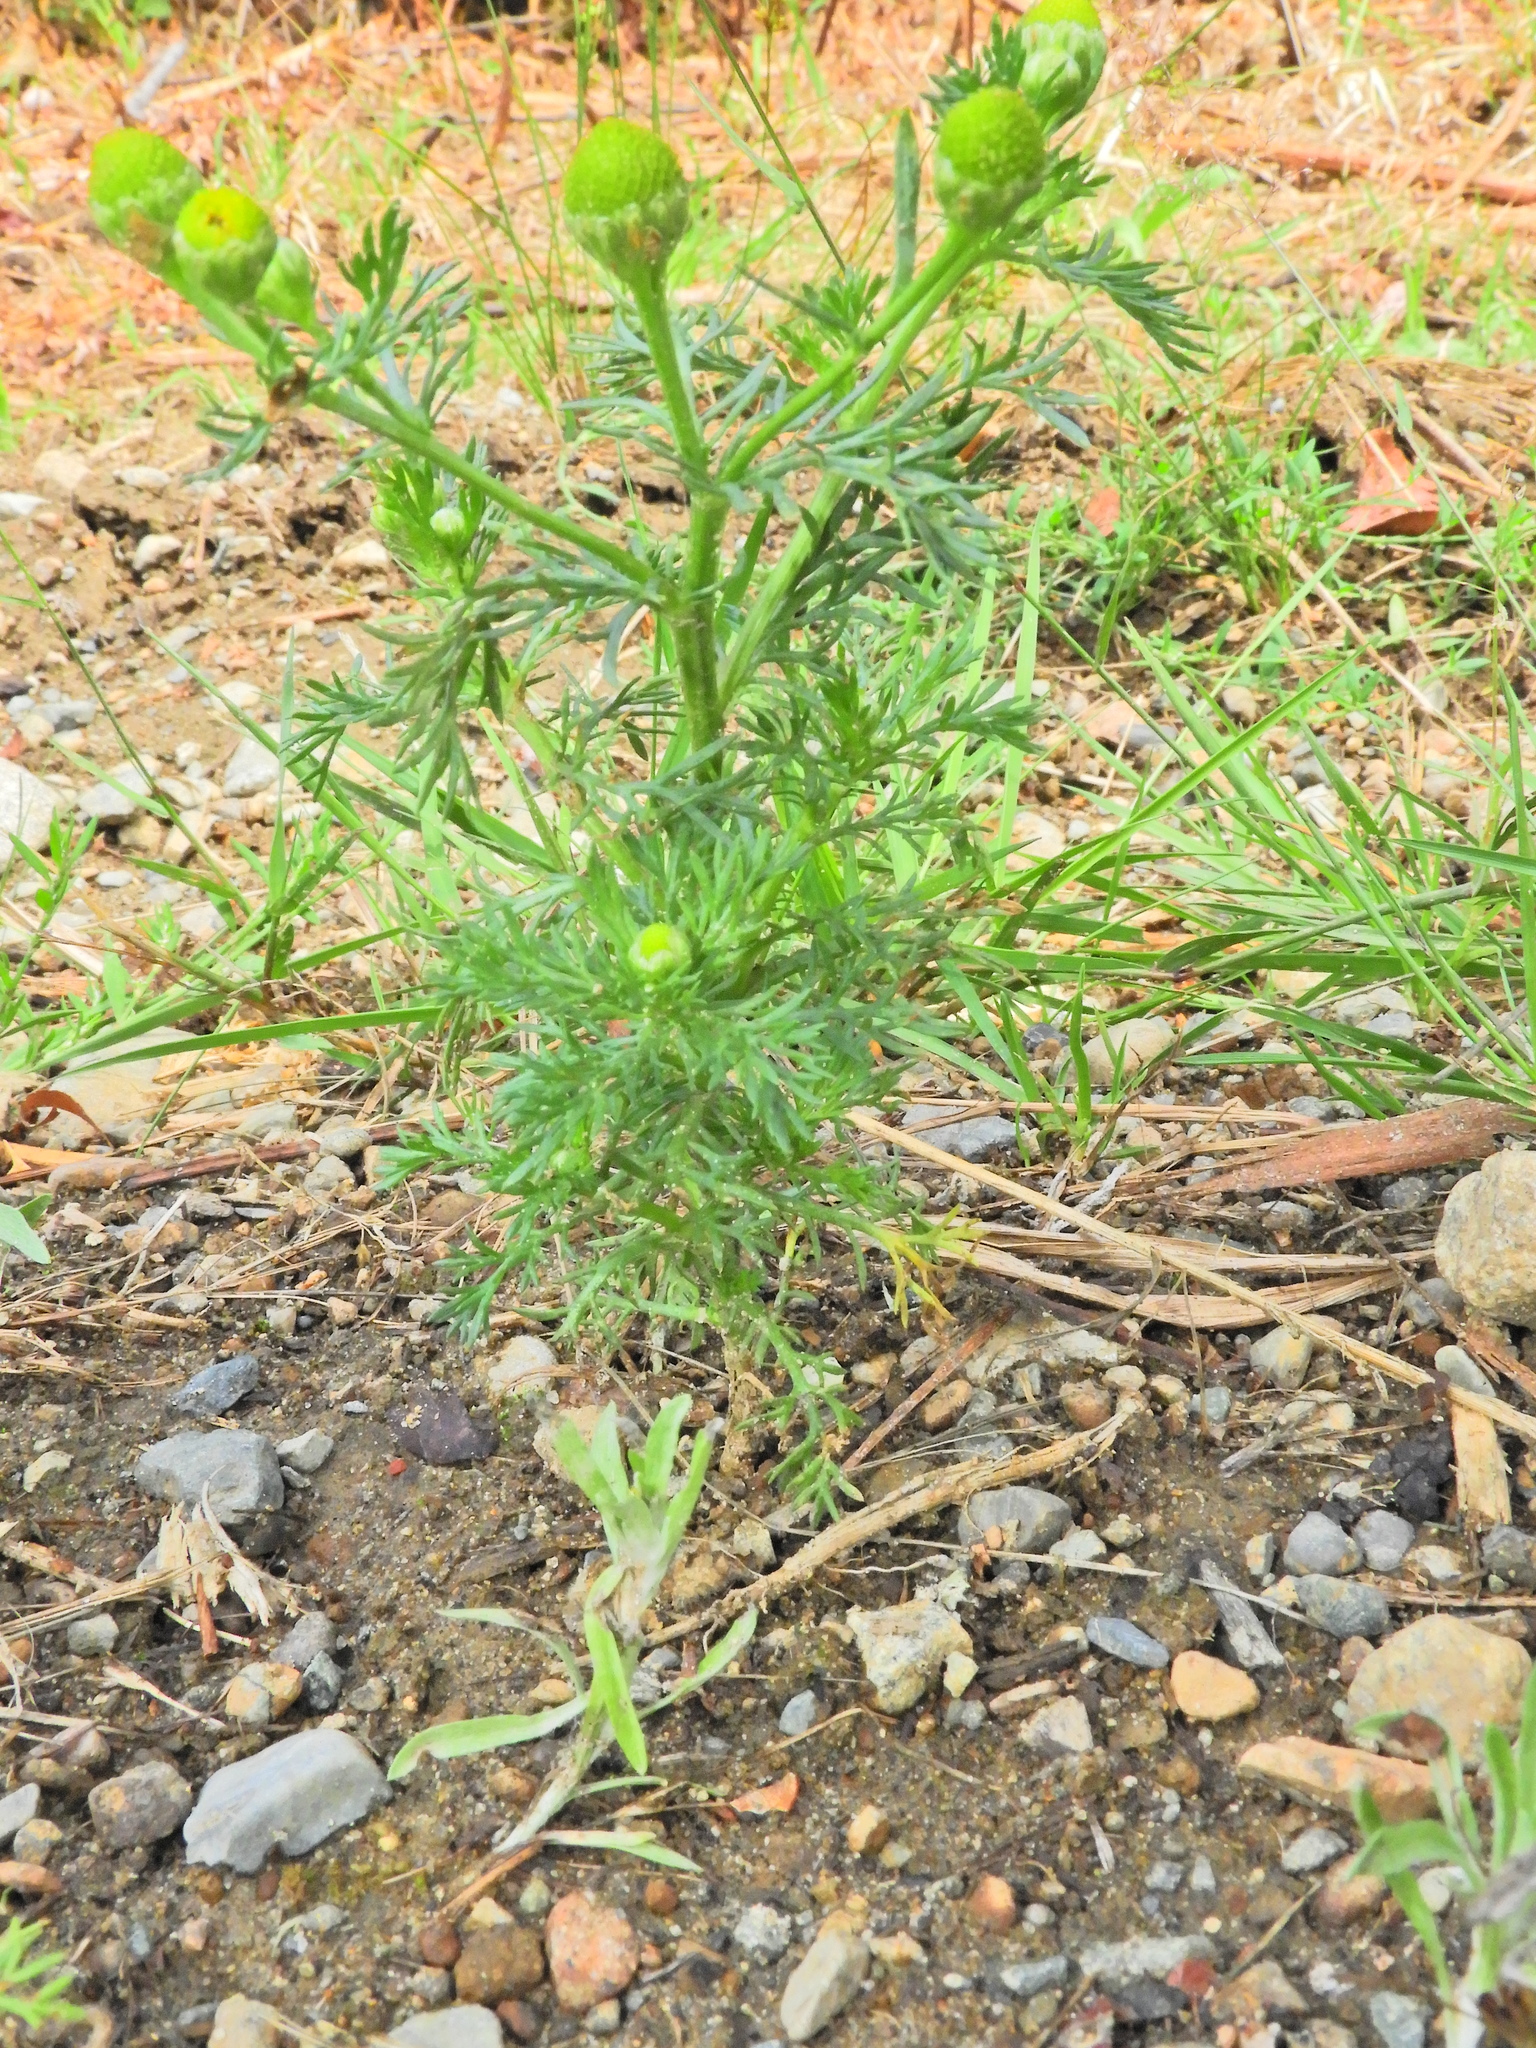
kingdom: Plantae
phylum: Tracheophyta
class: Magnoliopsida
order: Asterales
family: Asteraceae
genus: Matricaria
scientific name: Matricaria discoidea
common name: Disc mayweed
